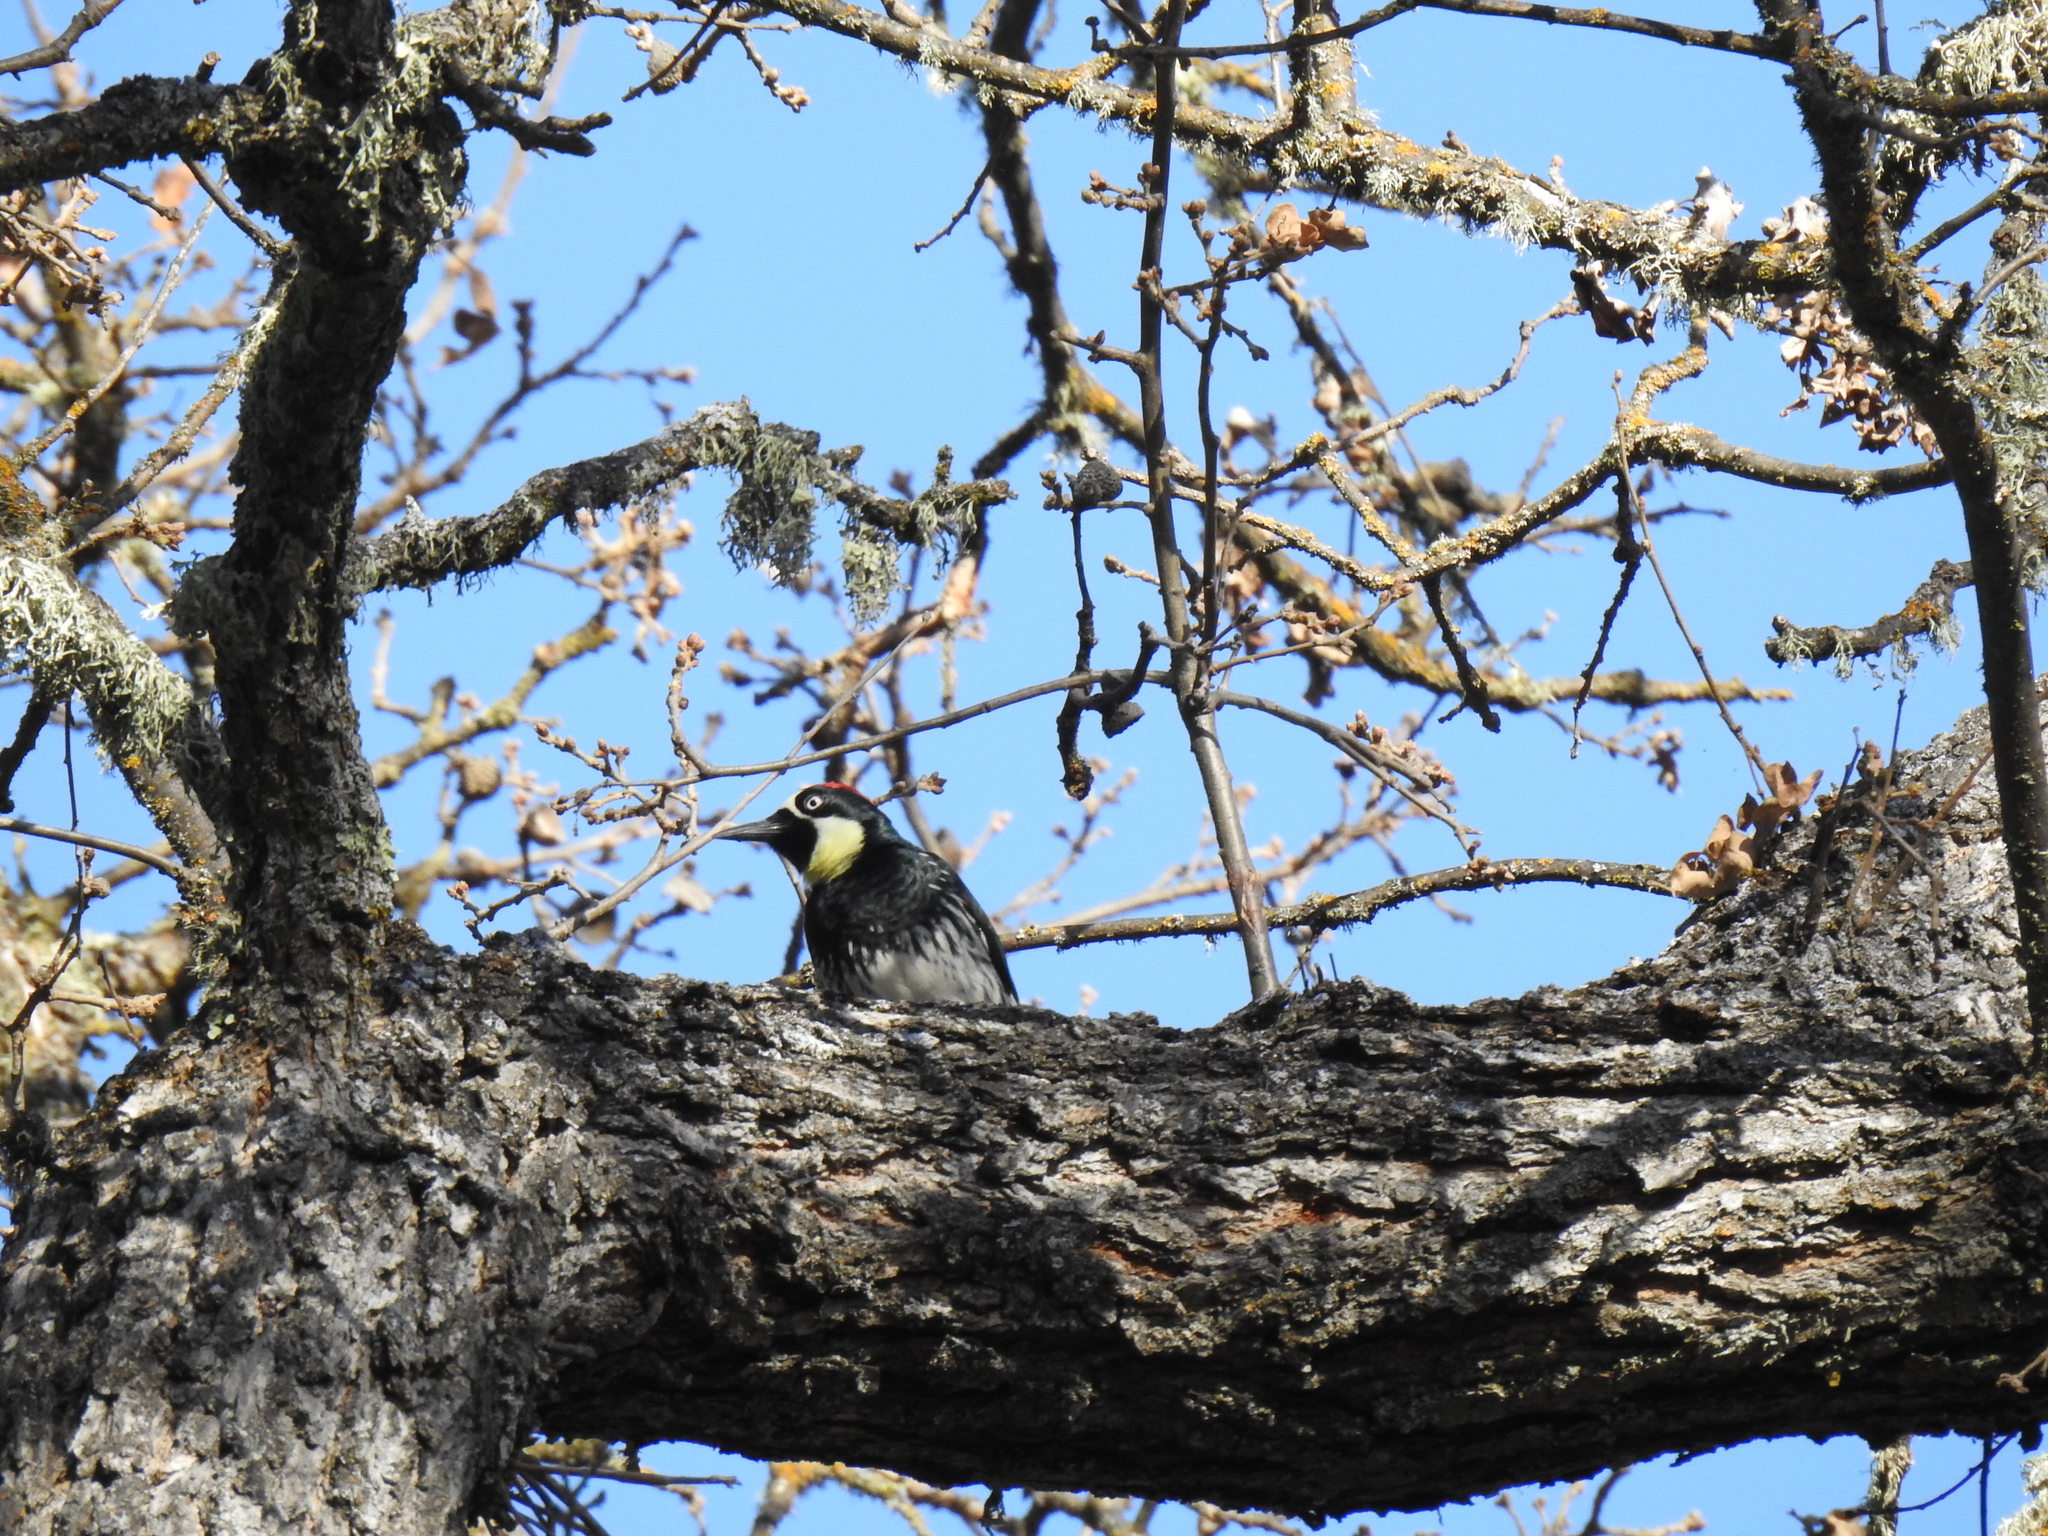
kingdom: Animalia
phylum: Chordata
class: Aves
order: Piciformes
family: Picidae
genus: Melanerpes
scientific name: Melanerpes formicivorus
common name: Acorn woodpecker
